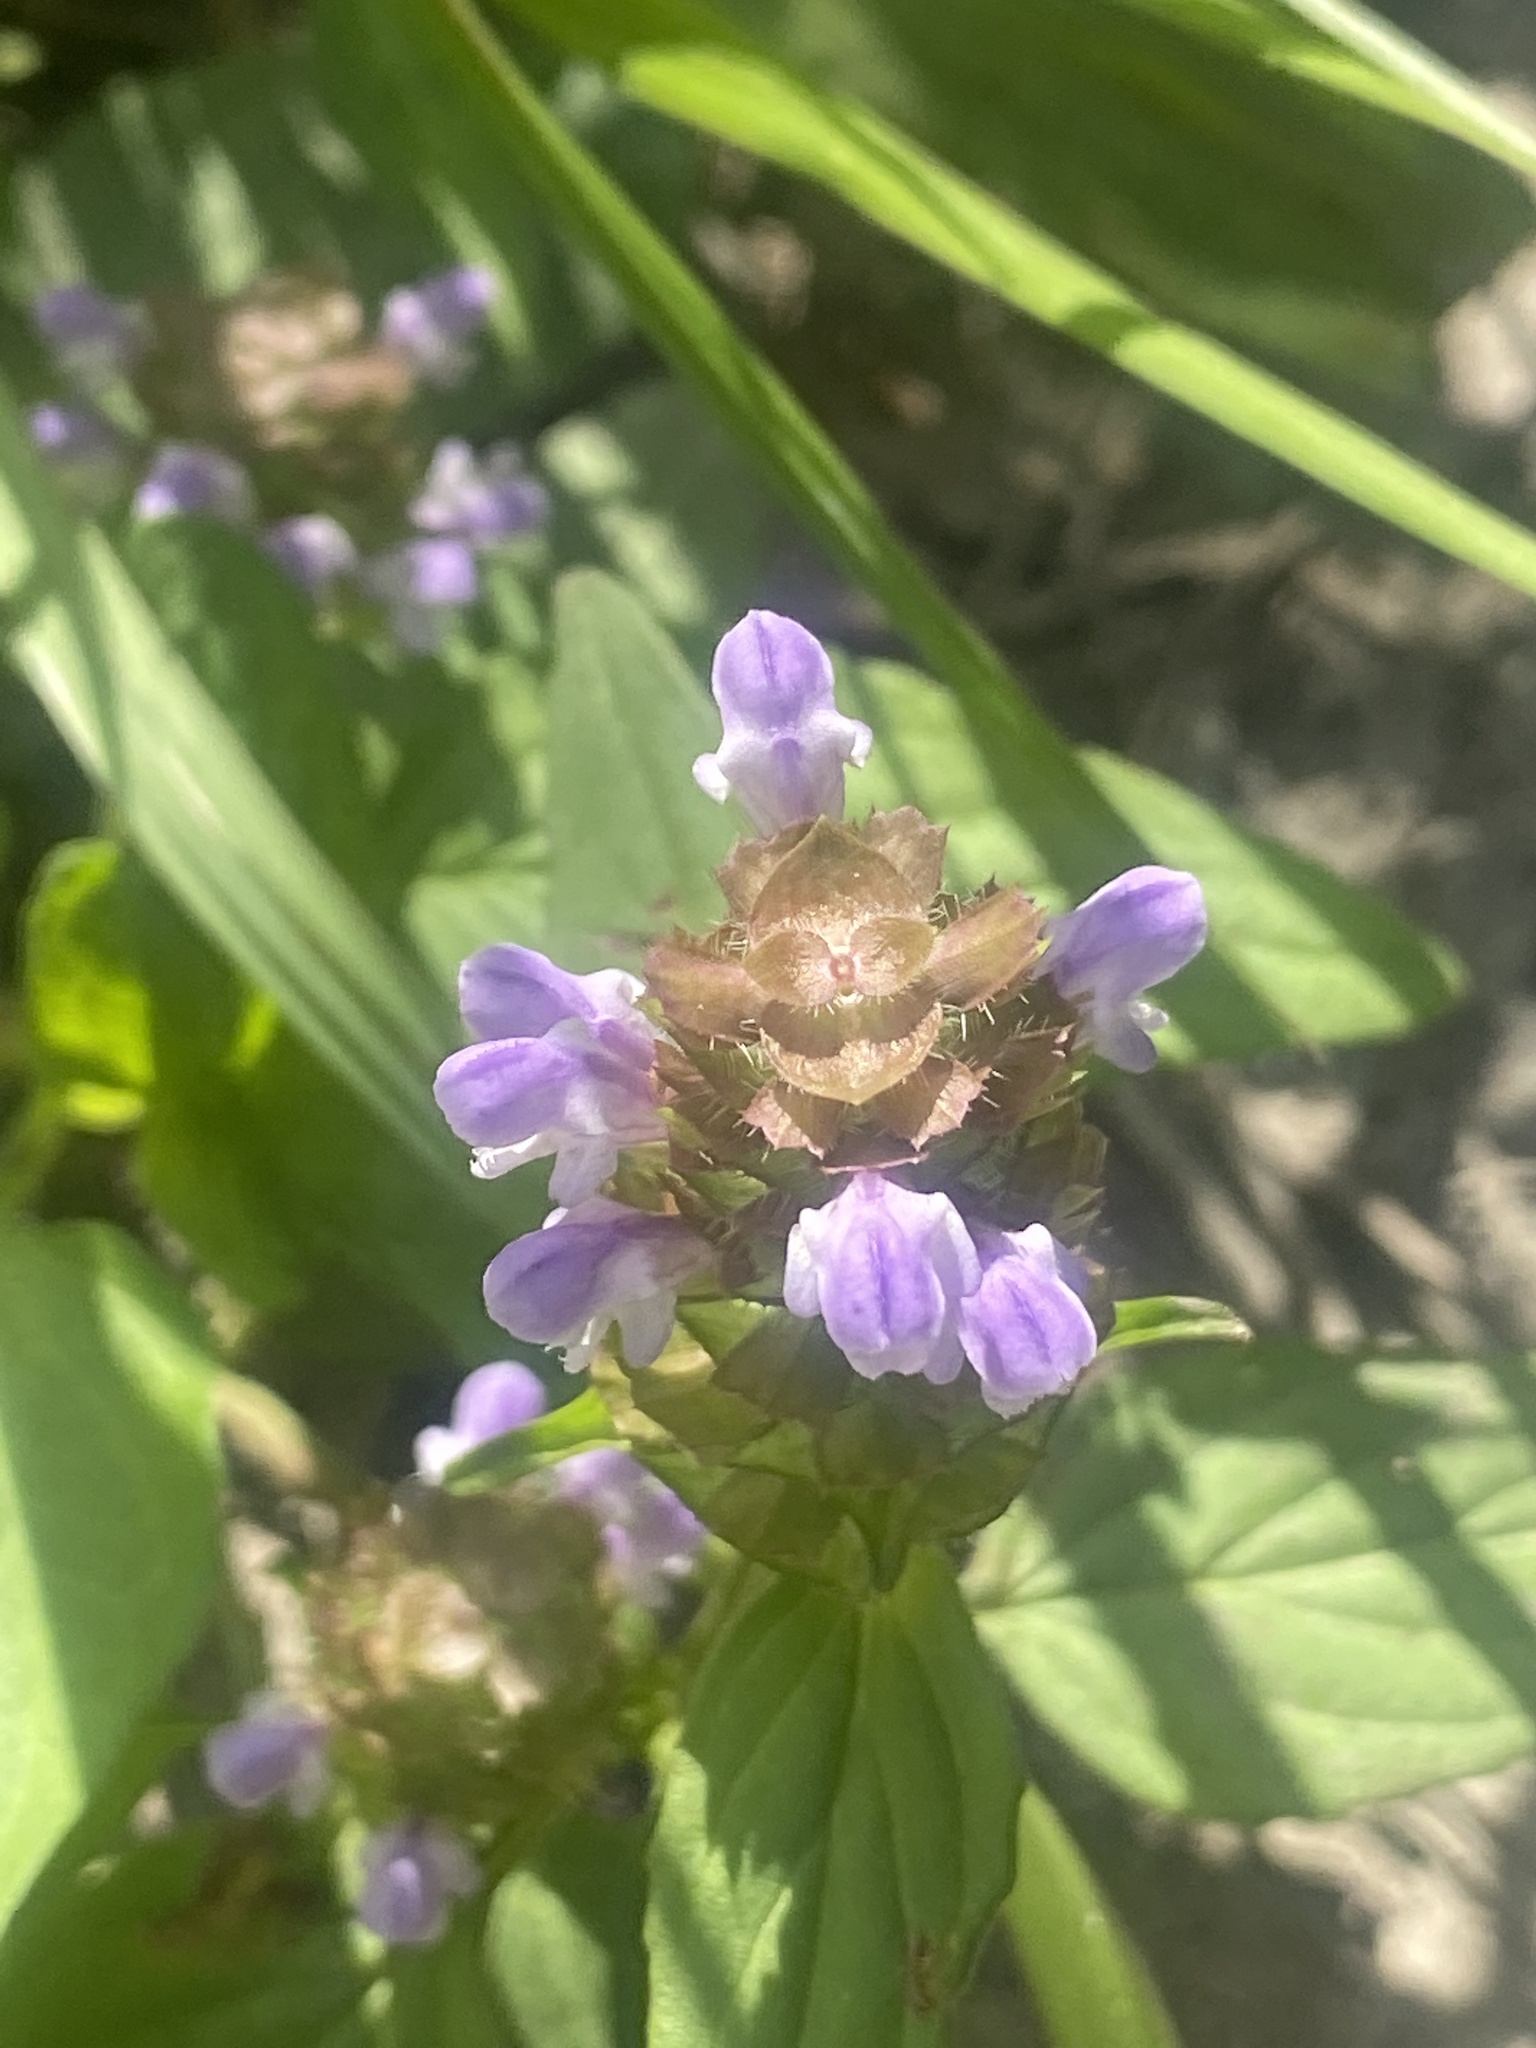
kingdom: Plantae
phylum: Tracheophyta
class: Magnoliopsida
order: Lamiales
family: Lamiaceae
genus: Prunella
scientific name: Prunella vulgaris
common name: Heal-all
